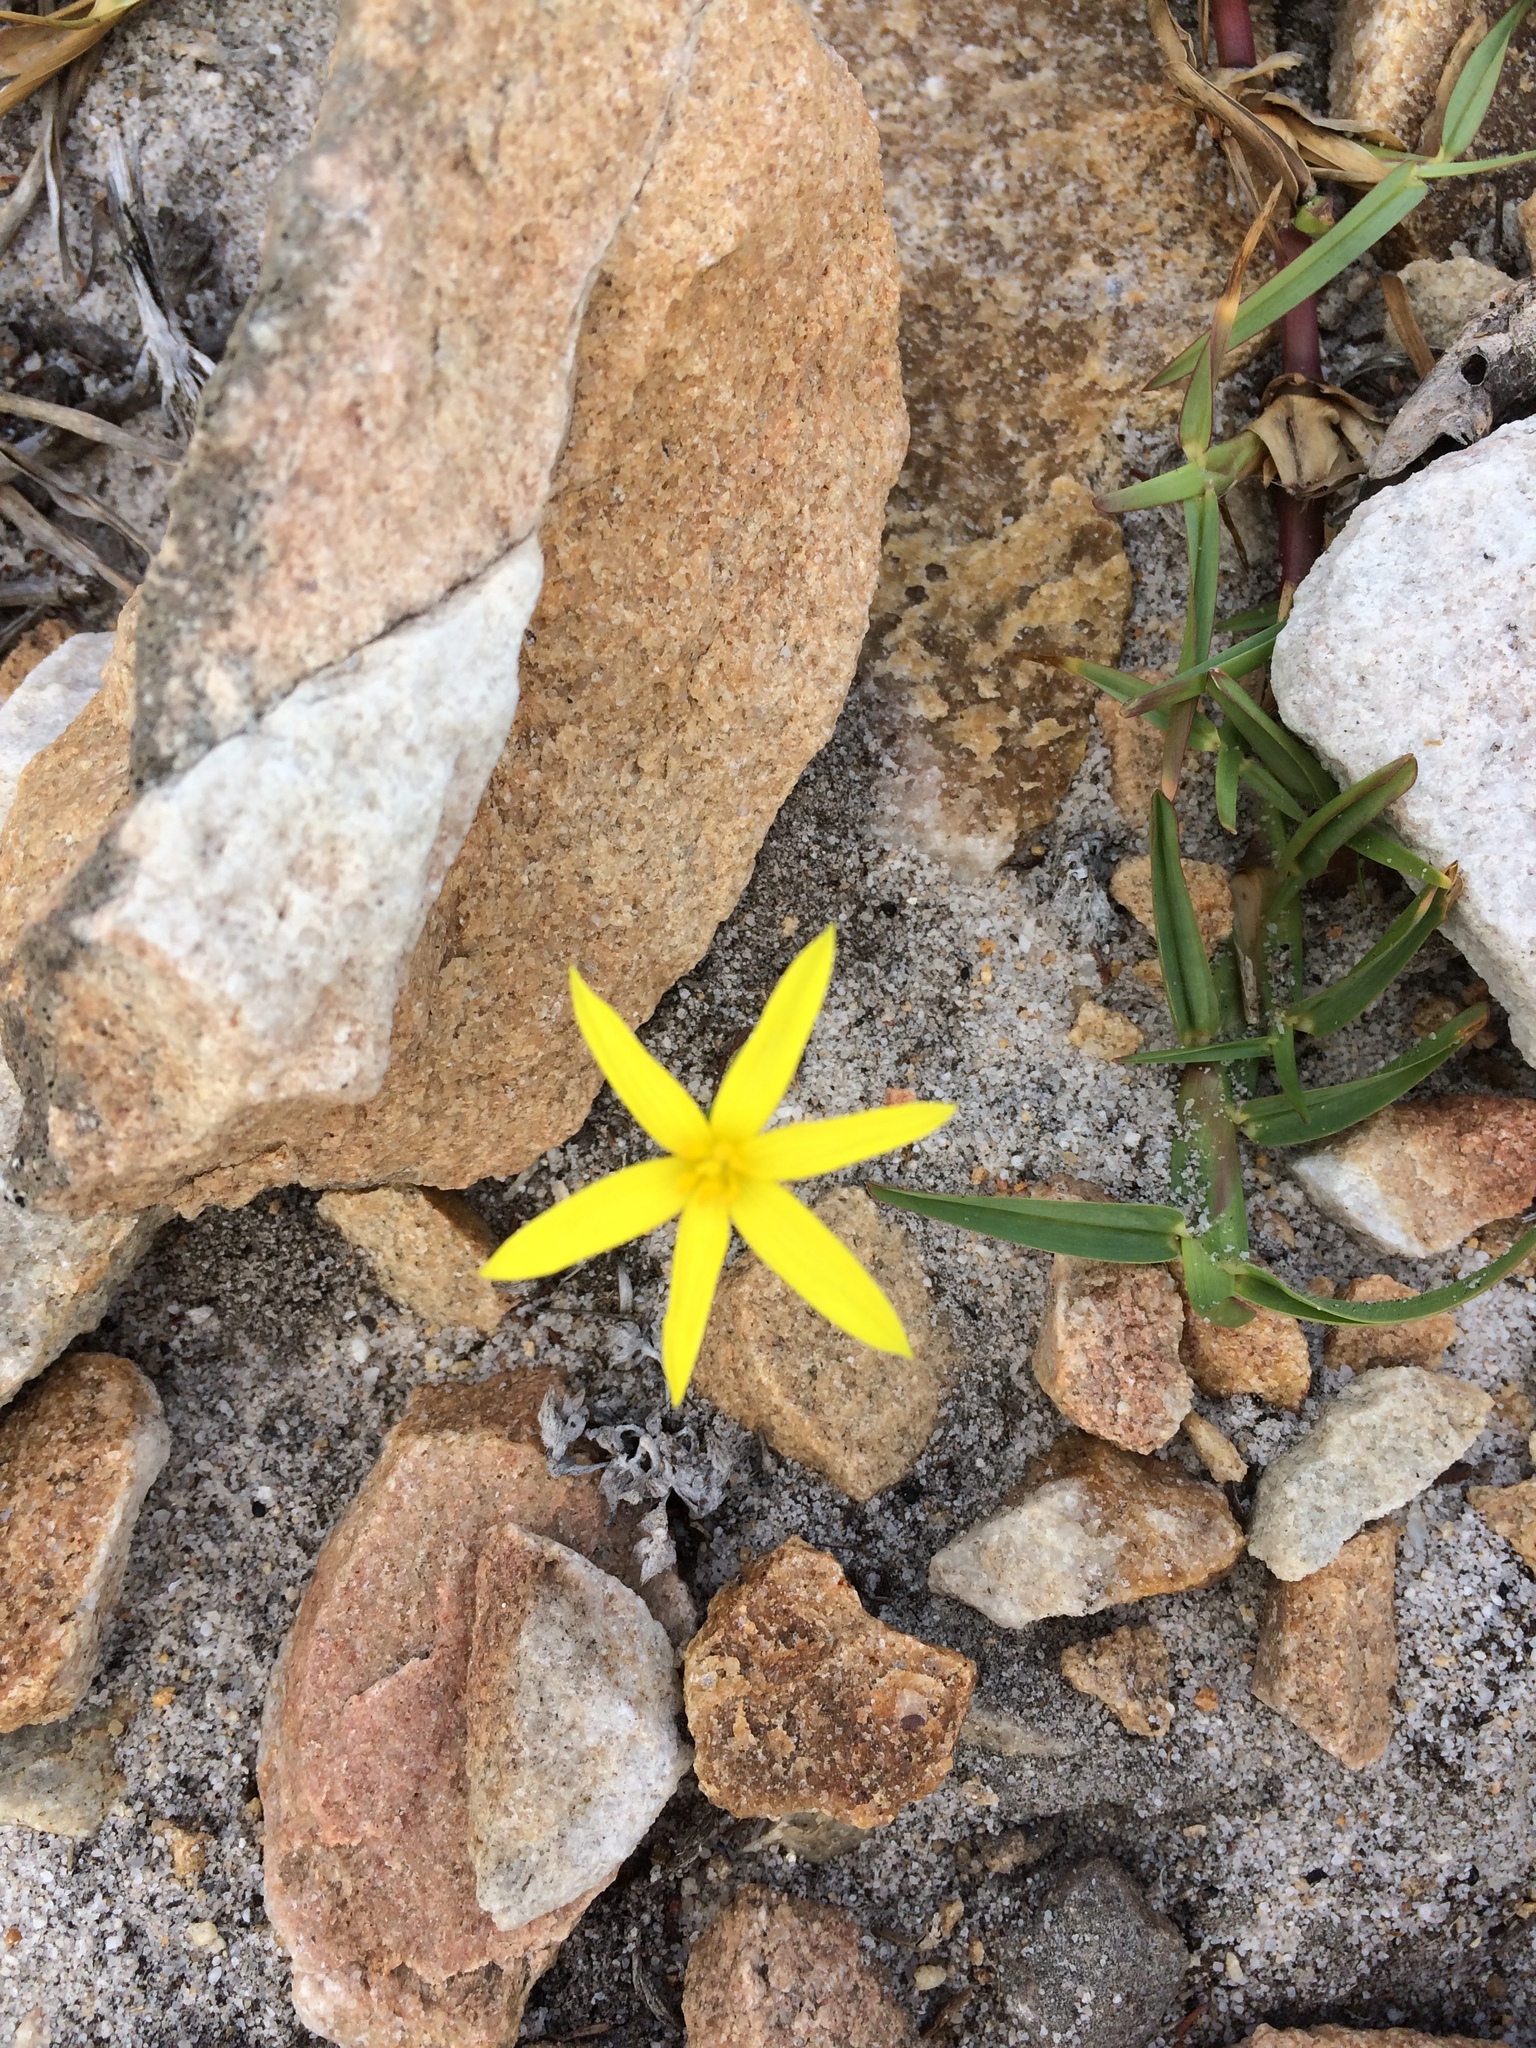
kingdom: Plantae
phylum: Tracheophyta
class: Liliopsida
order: Asparagales
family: Hypoxidaceae
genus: Empodium
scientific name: Empodium plicatum
